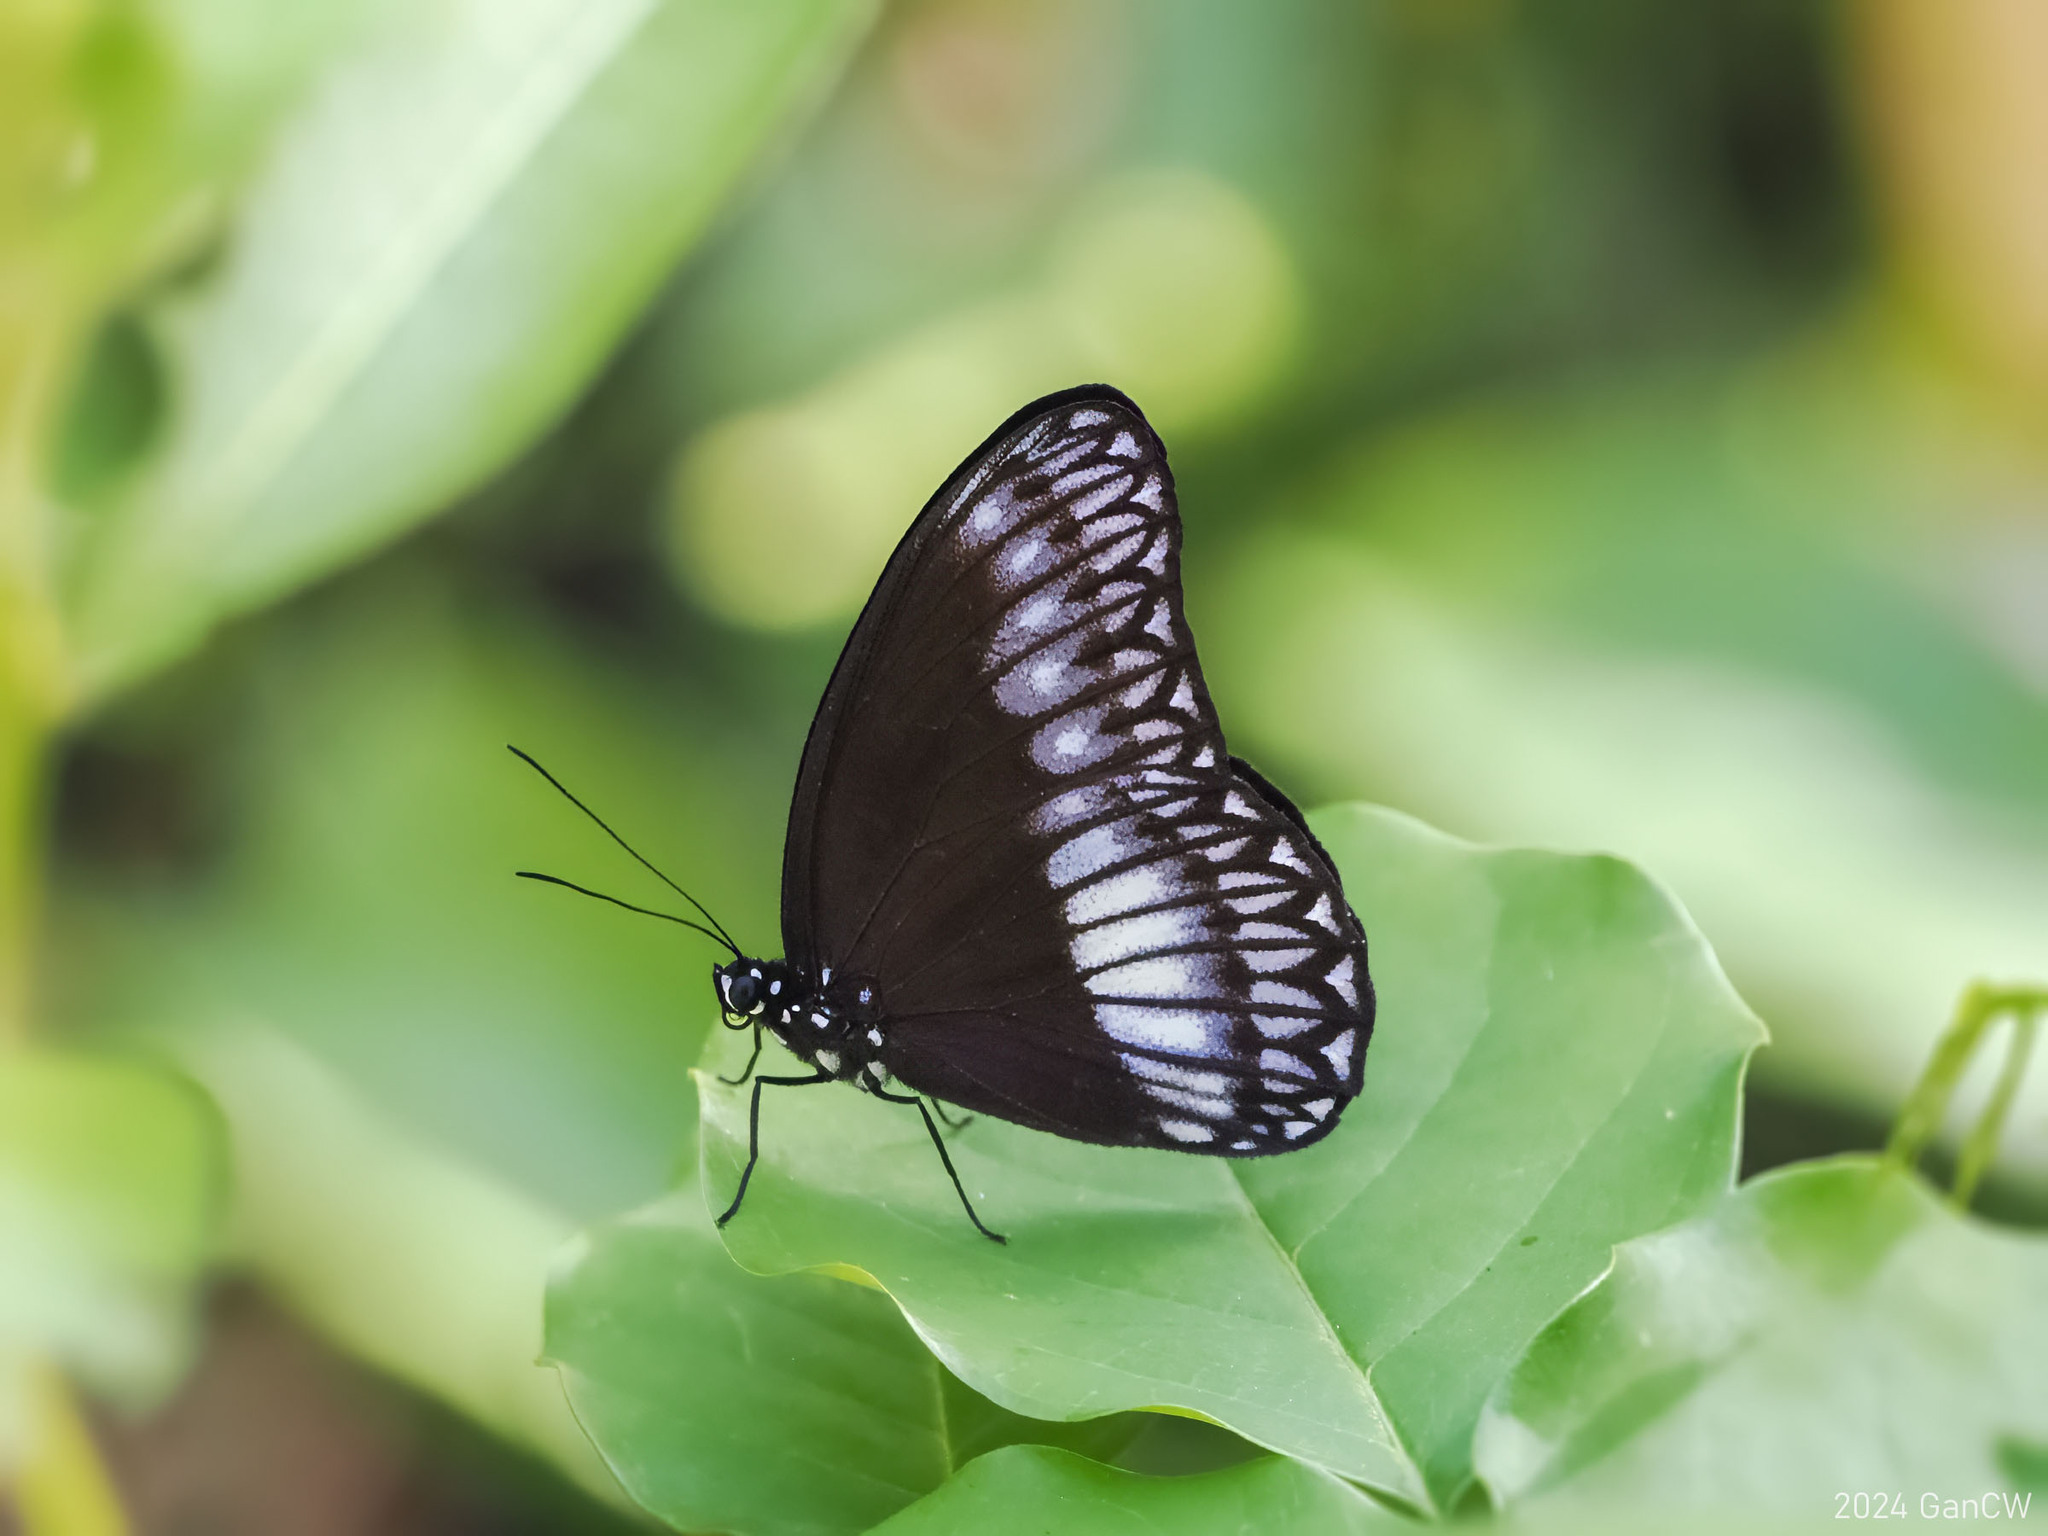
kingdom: Animalia
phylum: Arthropoda
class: Insecta
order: Lepidoptera
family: Nymphalidae
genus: Zethera
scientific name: Zethera pimplea
